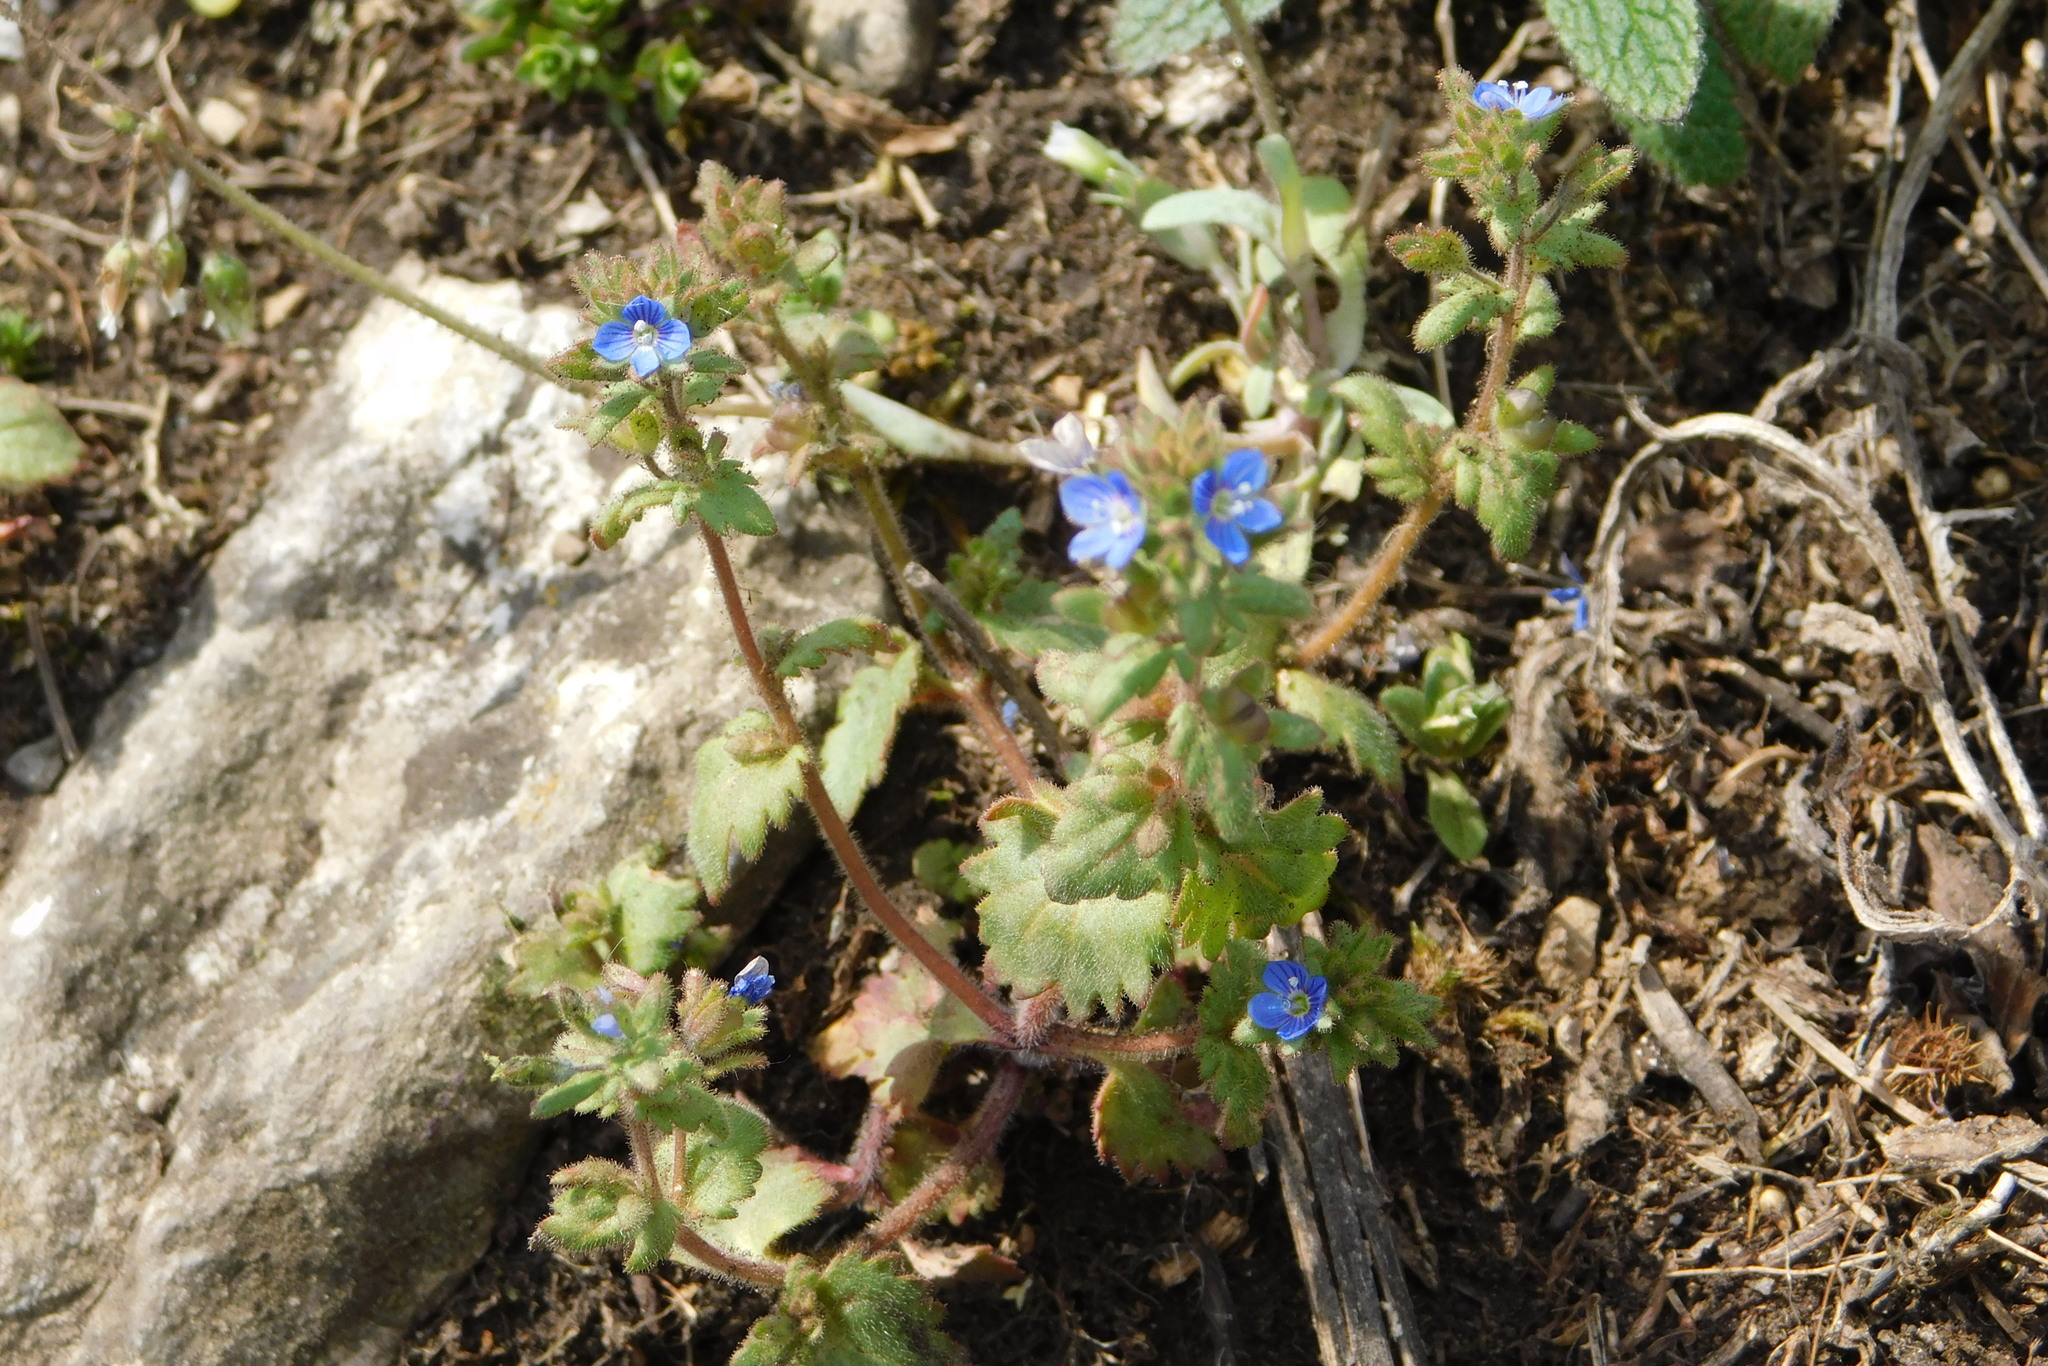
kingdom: Plantae
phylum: Tracheophyta
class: Magnoliopsida
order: Lamiales
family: Plantaginaceae
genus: Veronica
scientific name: Veronica praecox
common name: Breckland speedwell
